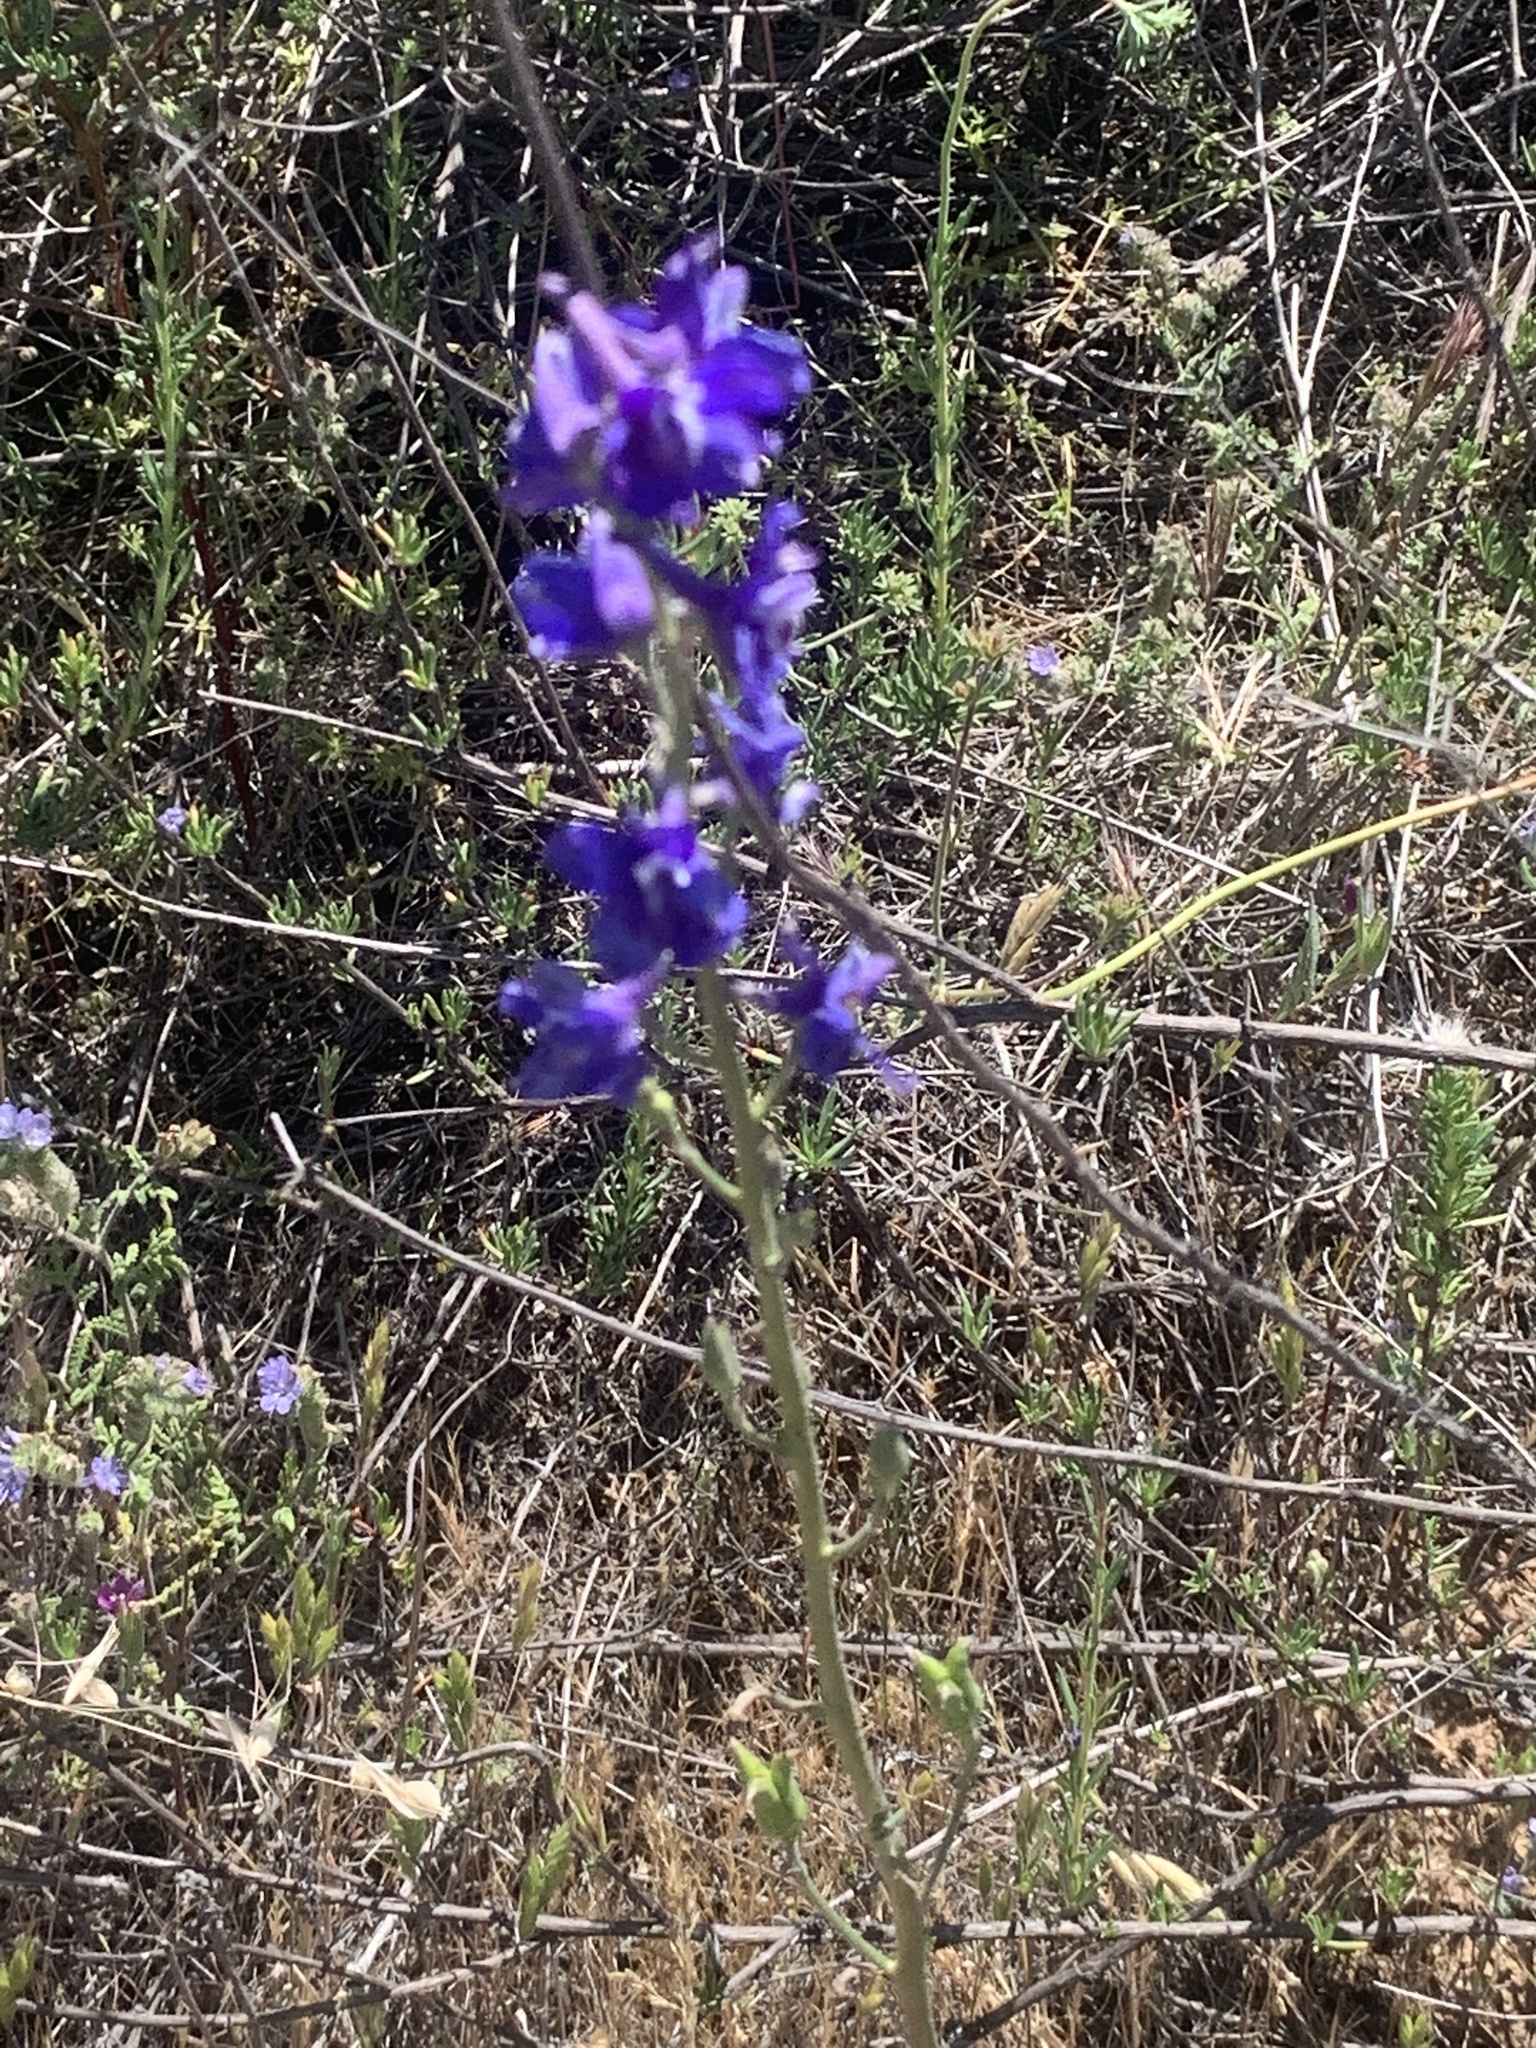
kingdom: Plantae
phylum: Tracheophyta
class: Magnoliopsida
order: Ranunculales
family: Ranunculaceae
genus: Delphinium
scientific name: Delphinium parryi
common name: Parry's larkspur
